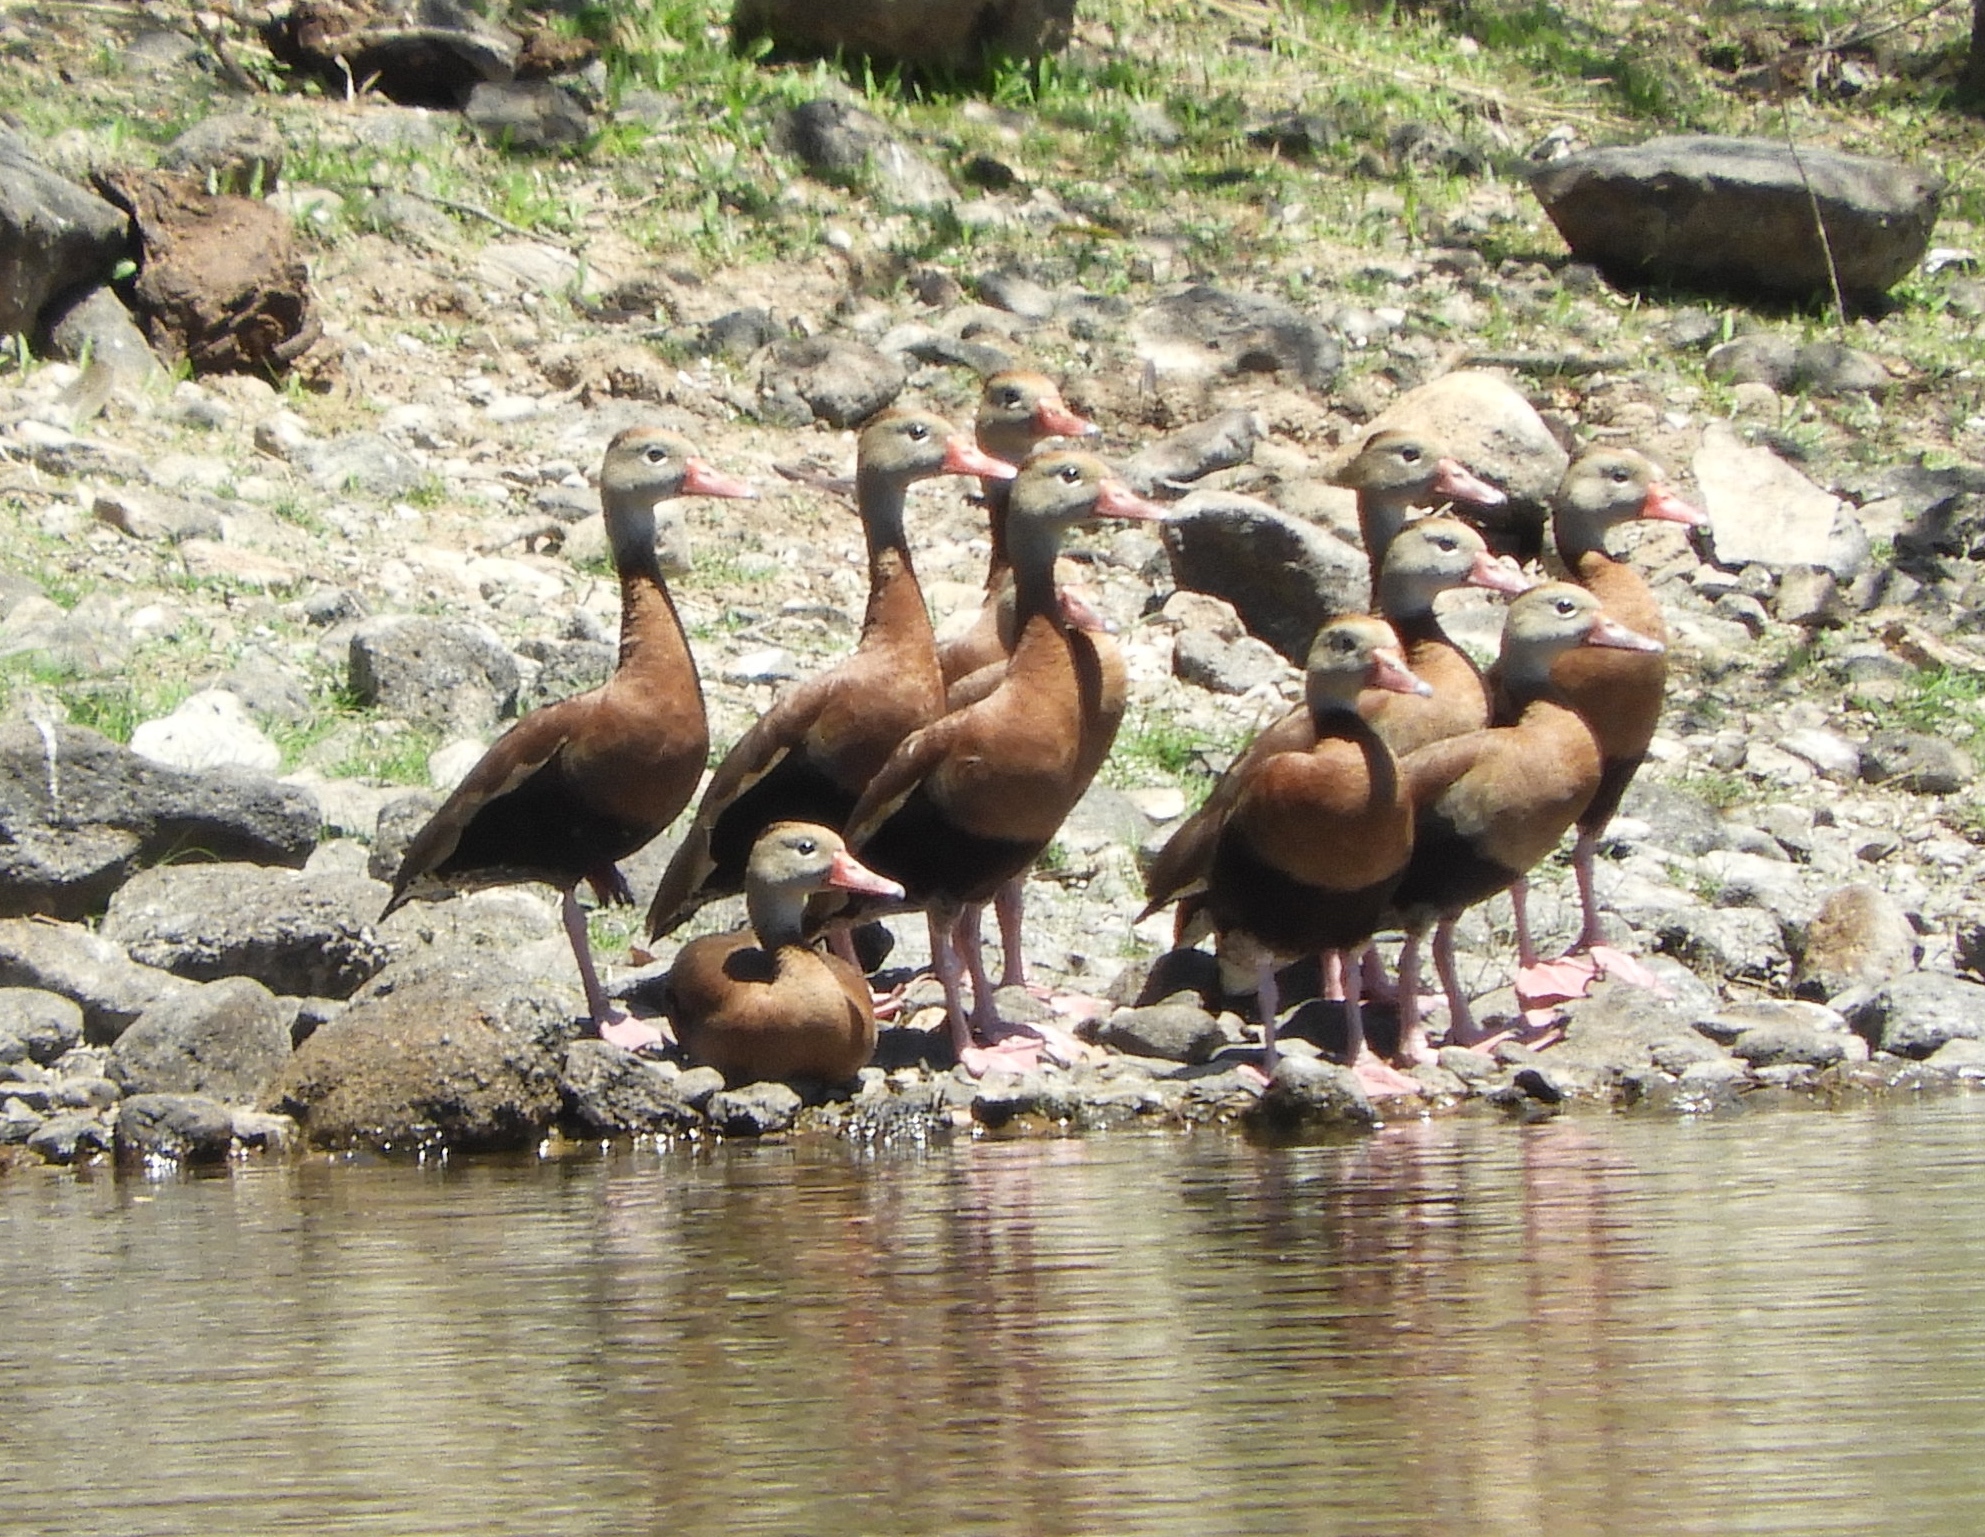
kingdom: Animalia
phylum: Chordata
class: Aves
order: Anseriformes
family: Anatidae
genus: Dendrocygna
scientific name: Dendrocygna autumnalis
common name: Black-bellied whistling duck
